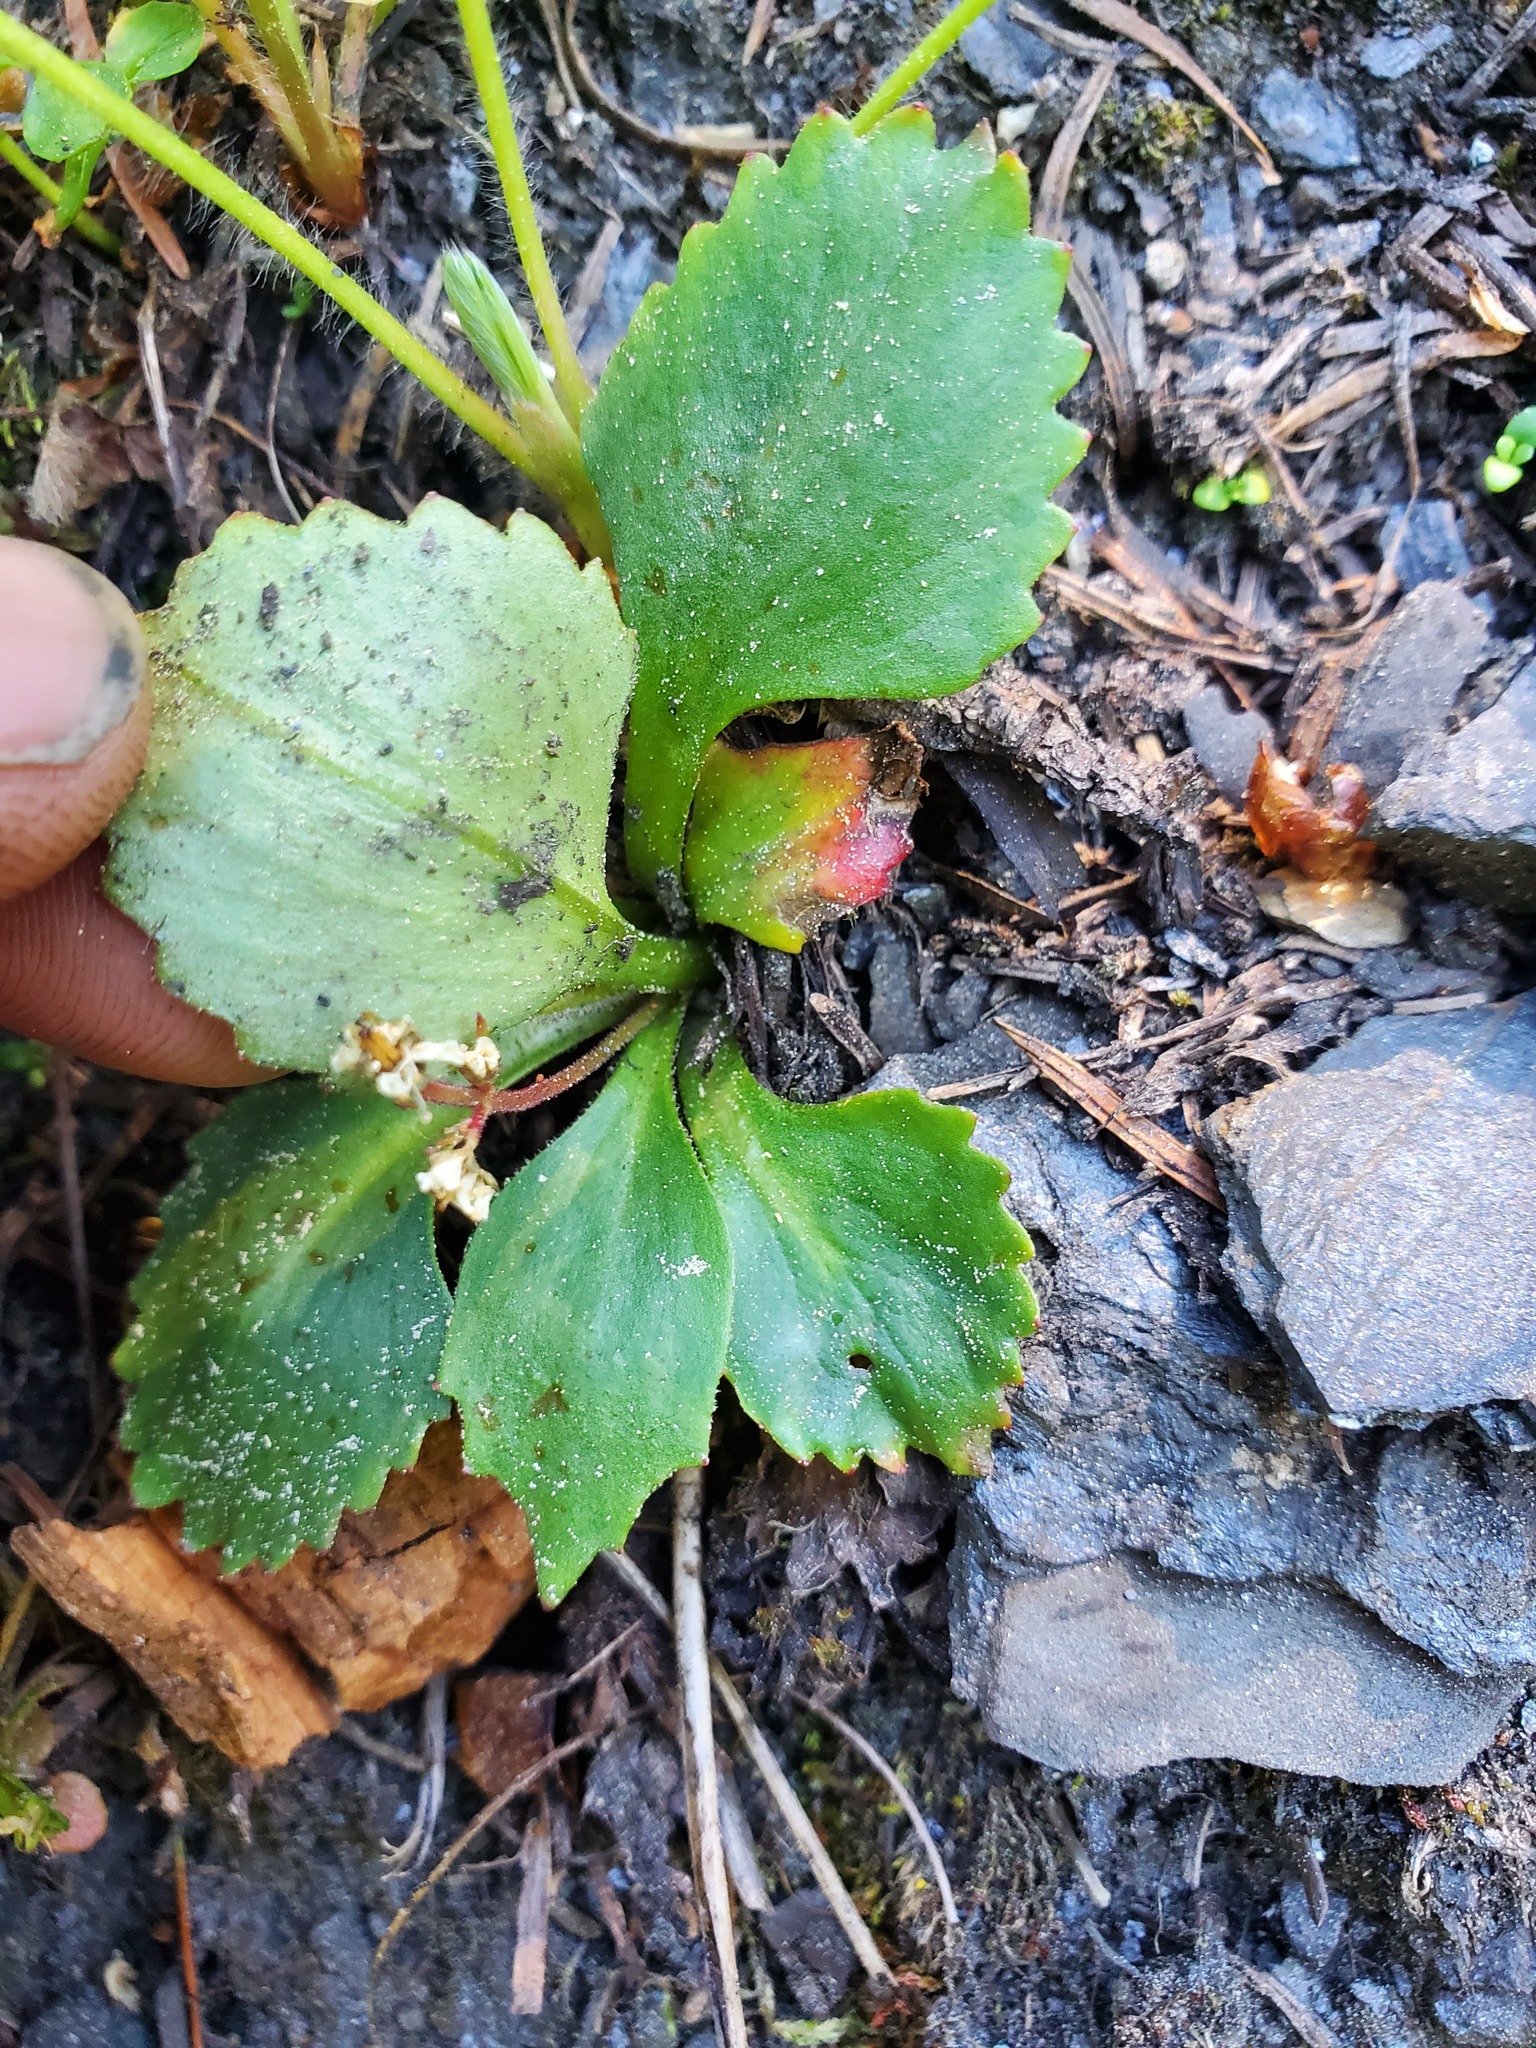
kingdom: Plantae
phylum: Tracheophyta
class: Magnoliopsida
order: Saxifragales
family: Saxifragaceae
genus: Micranthes
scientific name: Micranthes occidentalis
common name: Alberta saxifrage
